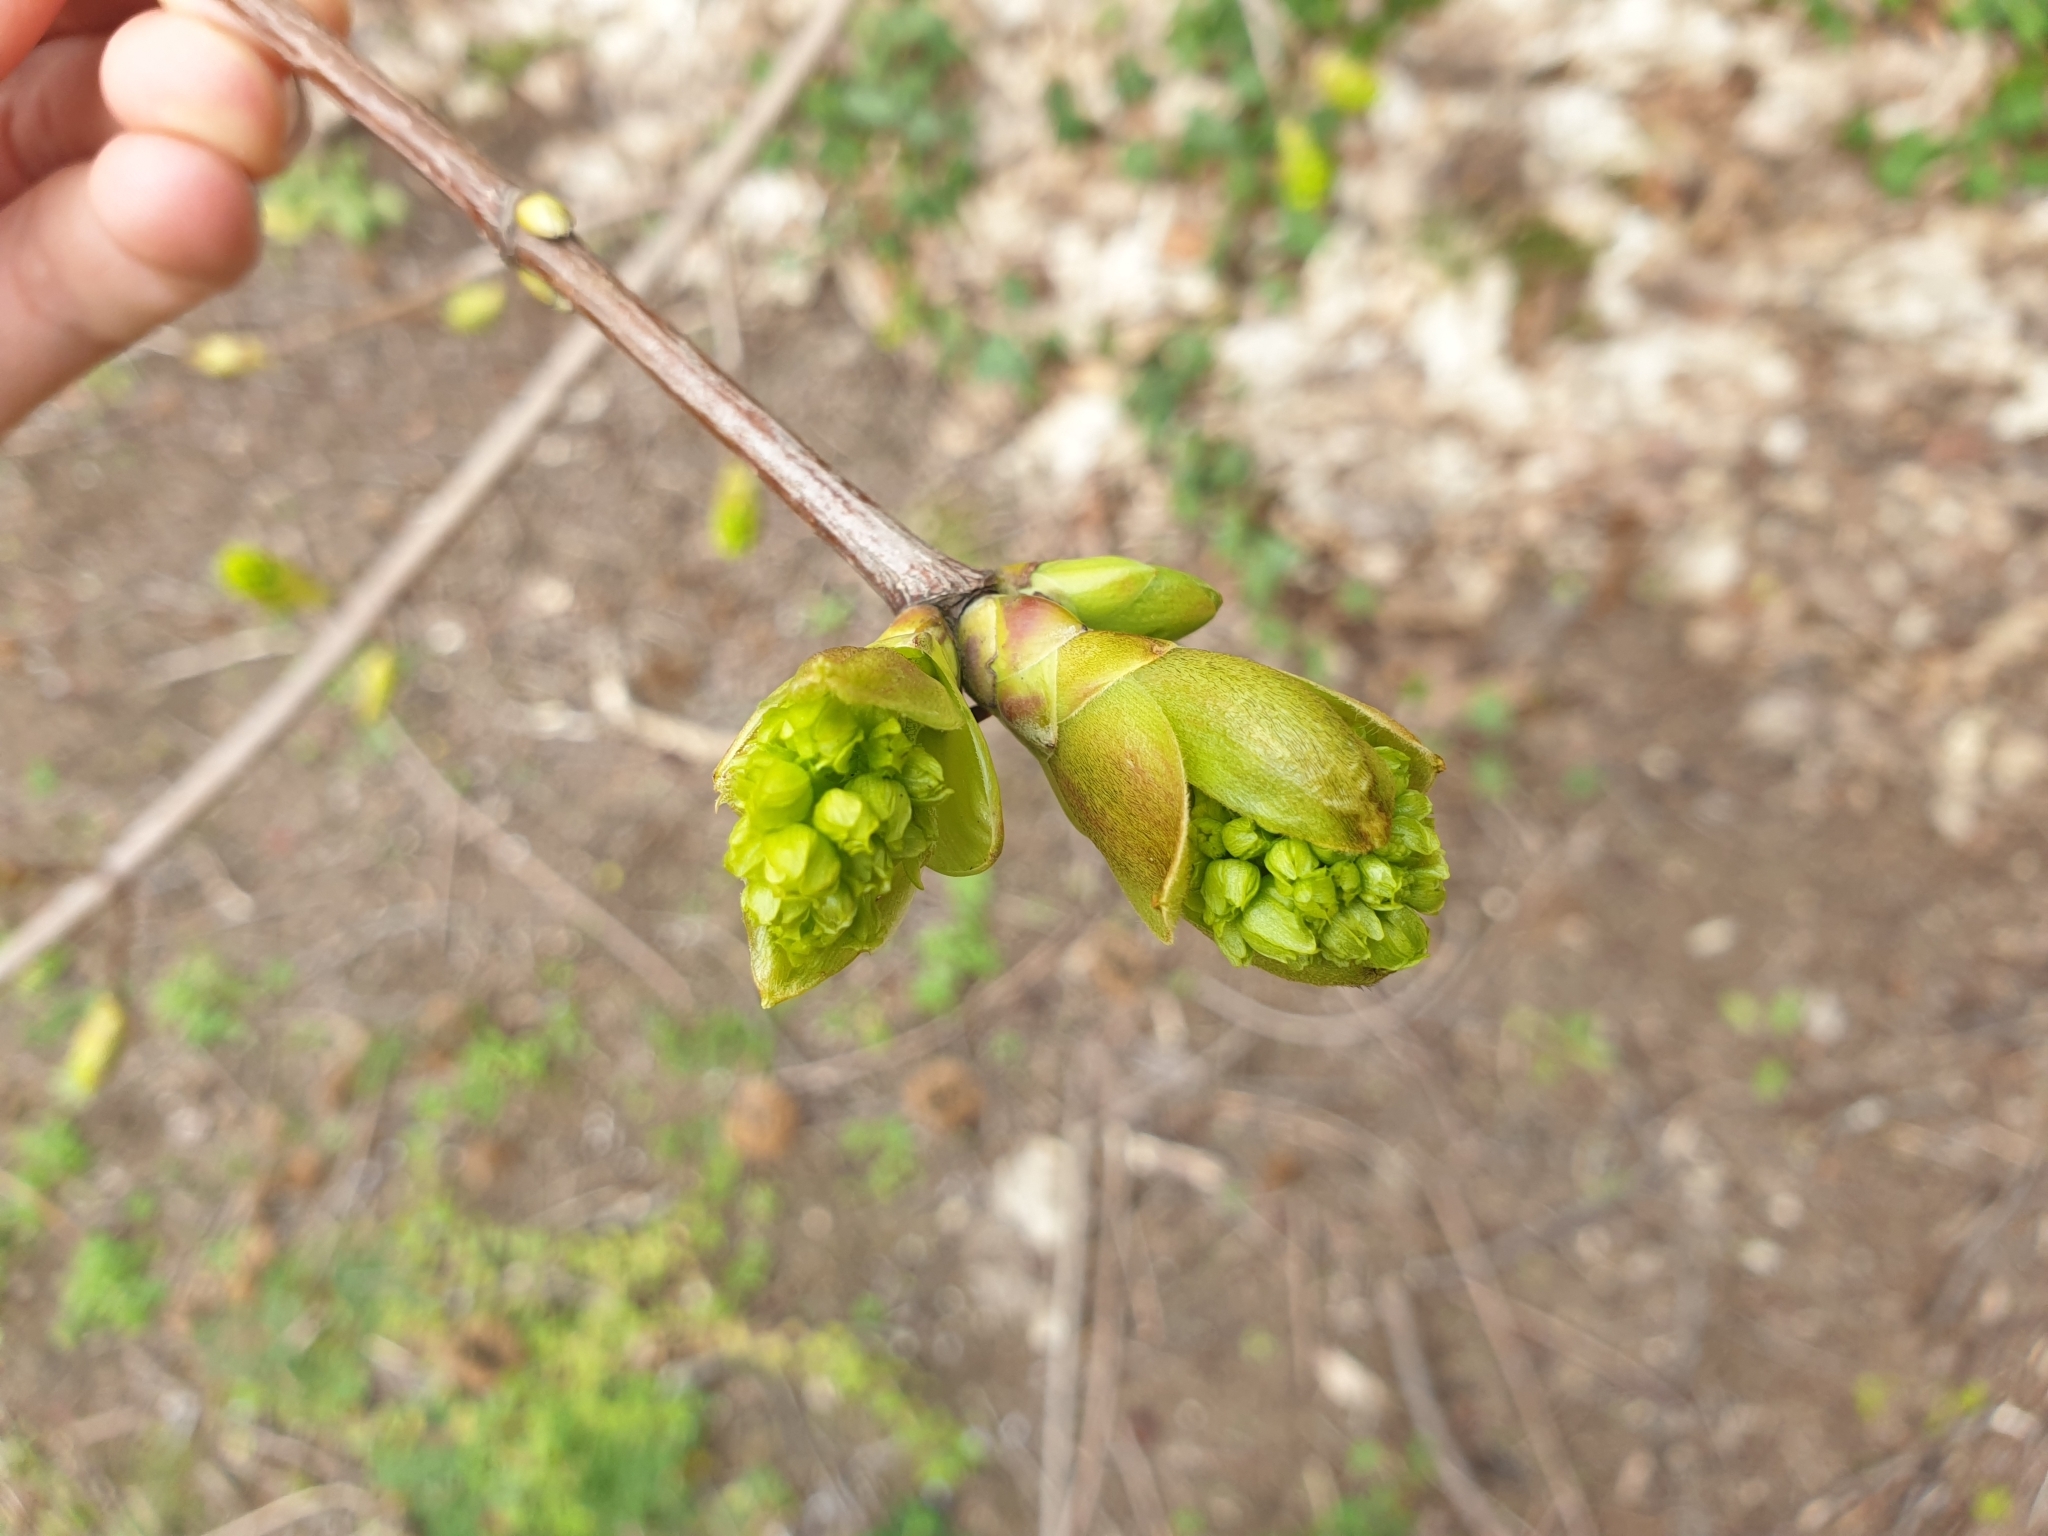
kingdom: Plantae
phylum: Tracheophyta
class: Magnoliopsida
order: Sapindales
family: Sapindaceae
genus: Acer
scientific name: Acer platanoides
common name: Norway maple
